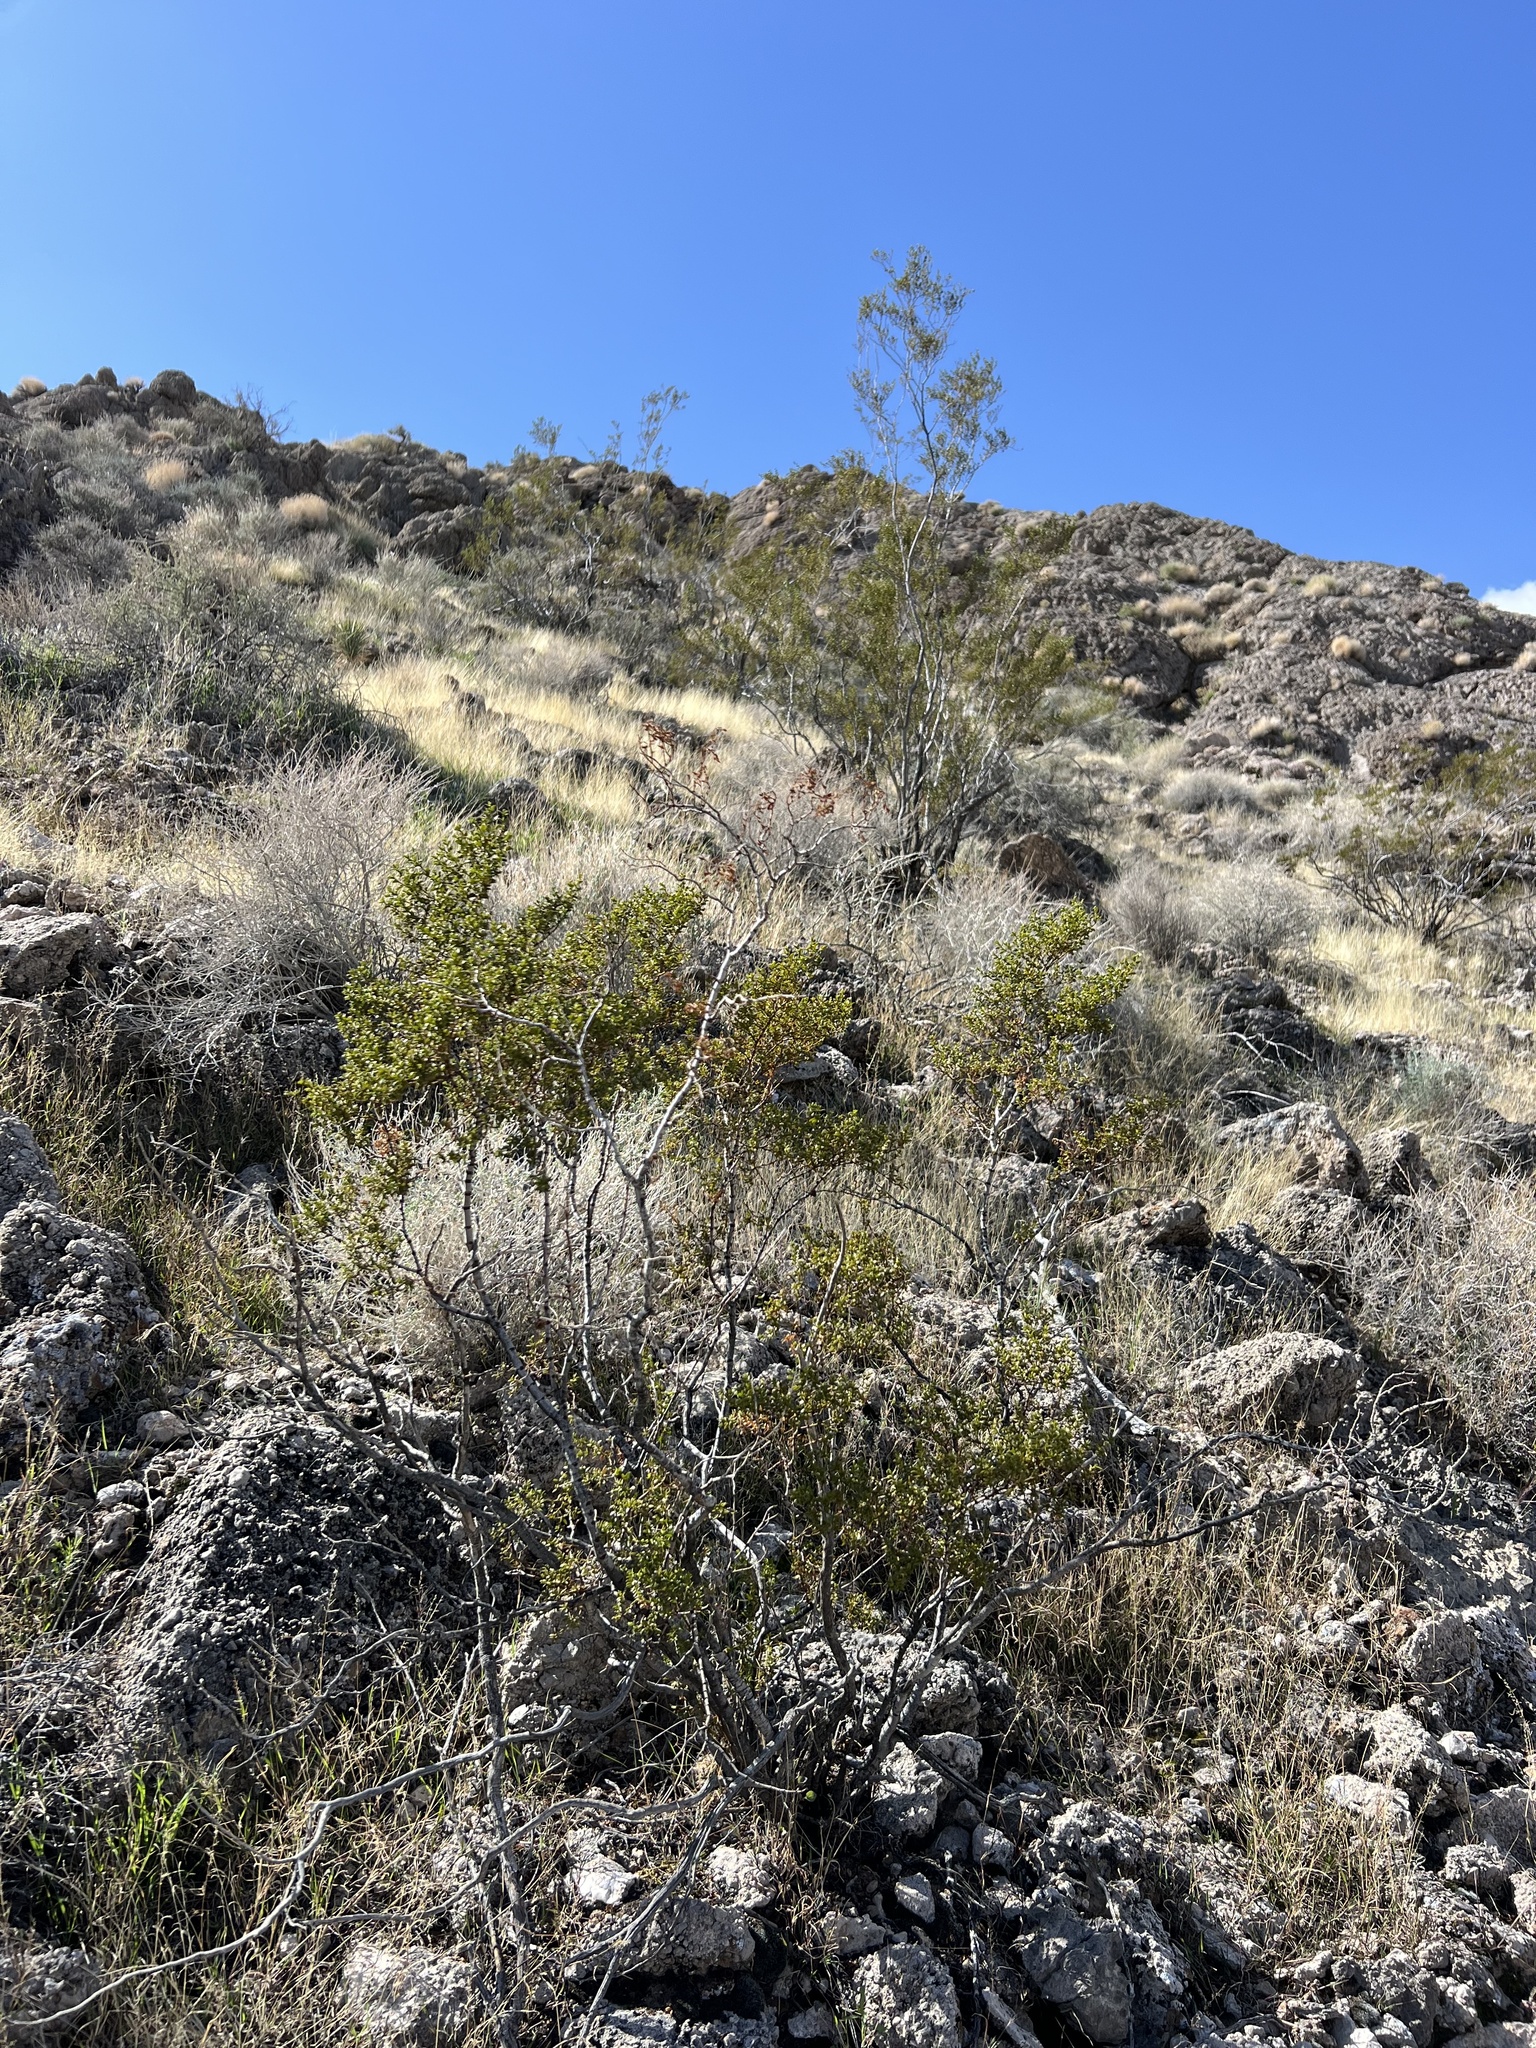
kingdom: Plantae
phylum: Tracheophyta
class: Magnoliopsida
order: Zygophyllales
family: Zygophyllaceae
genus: Larrea
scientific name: Larrea tridentata
